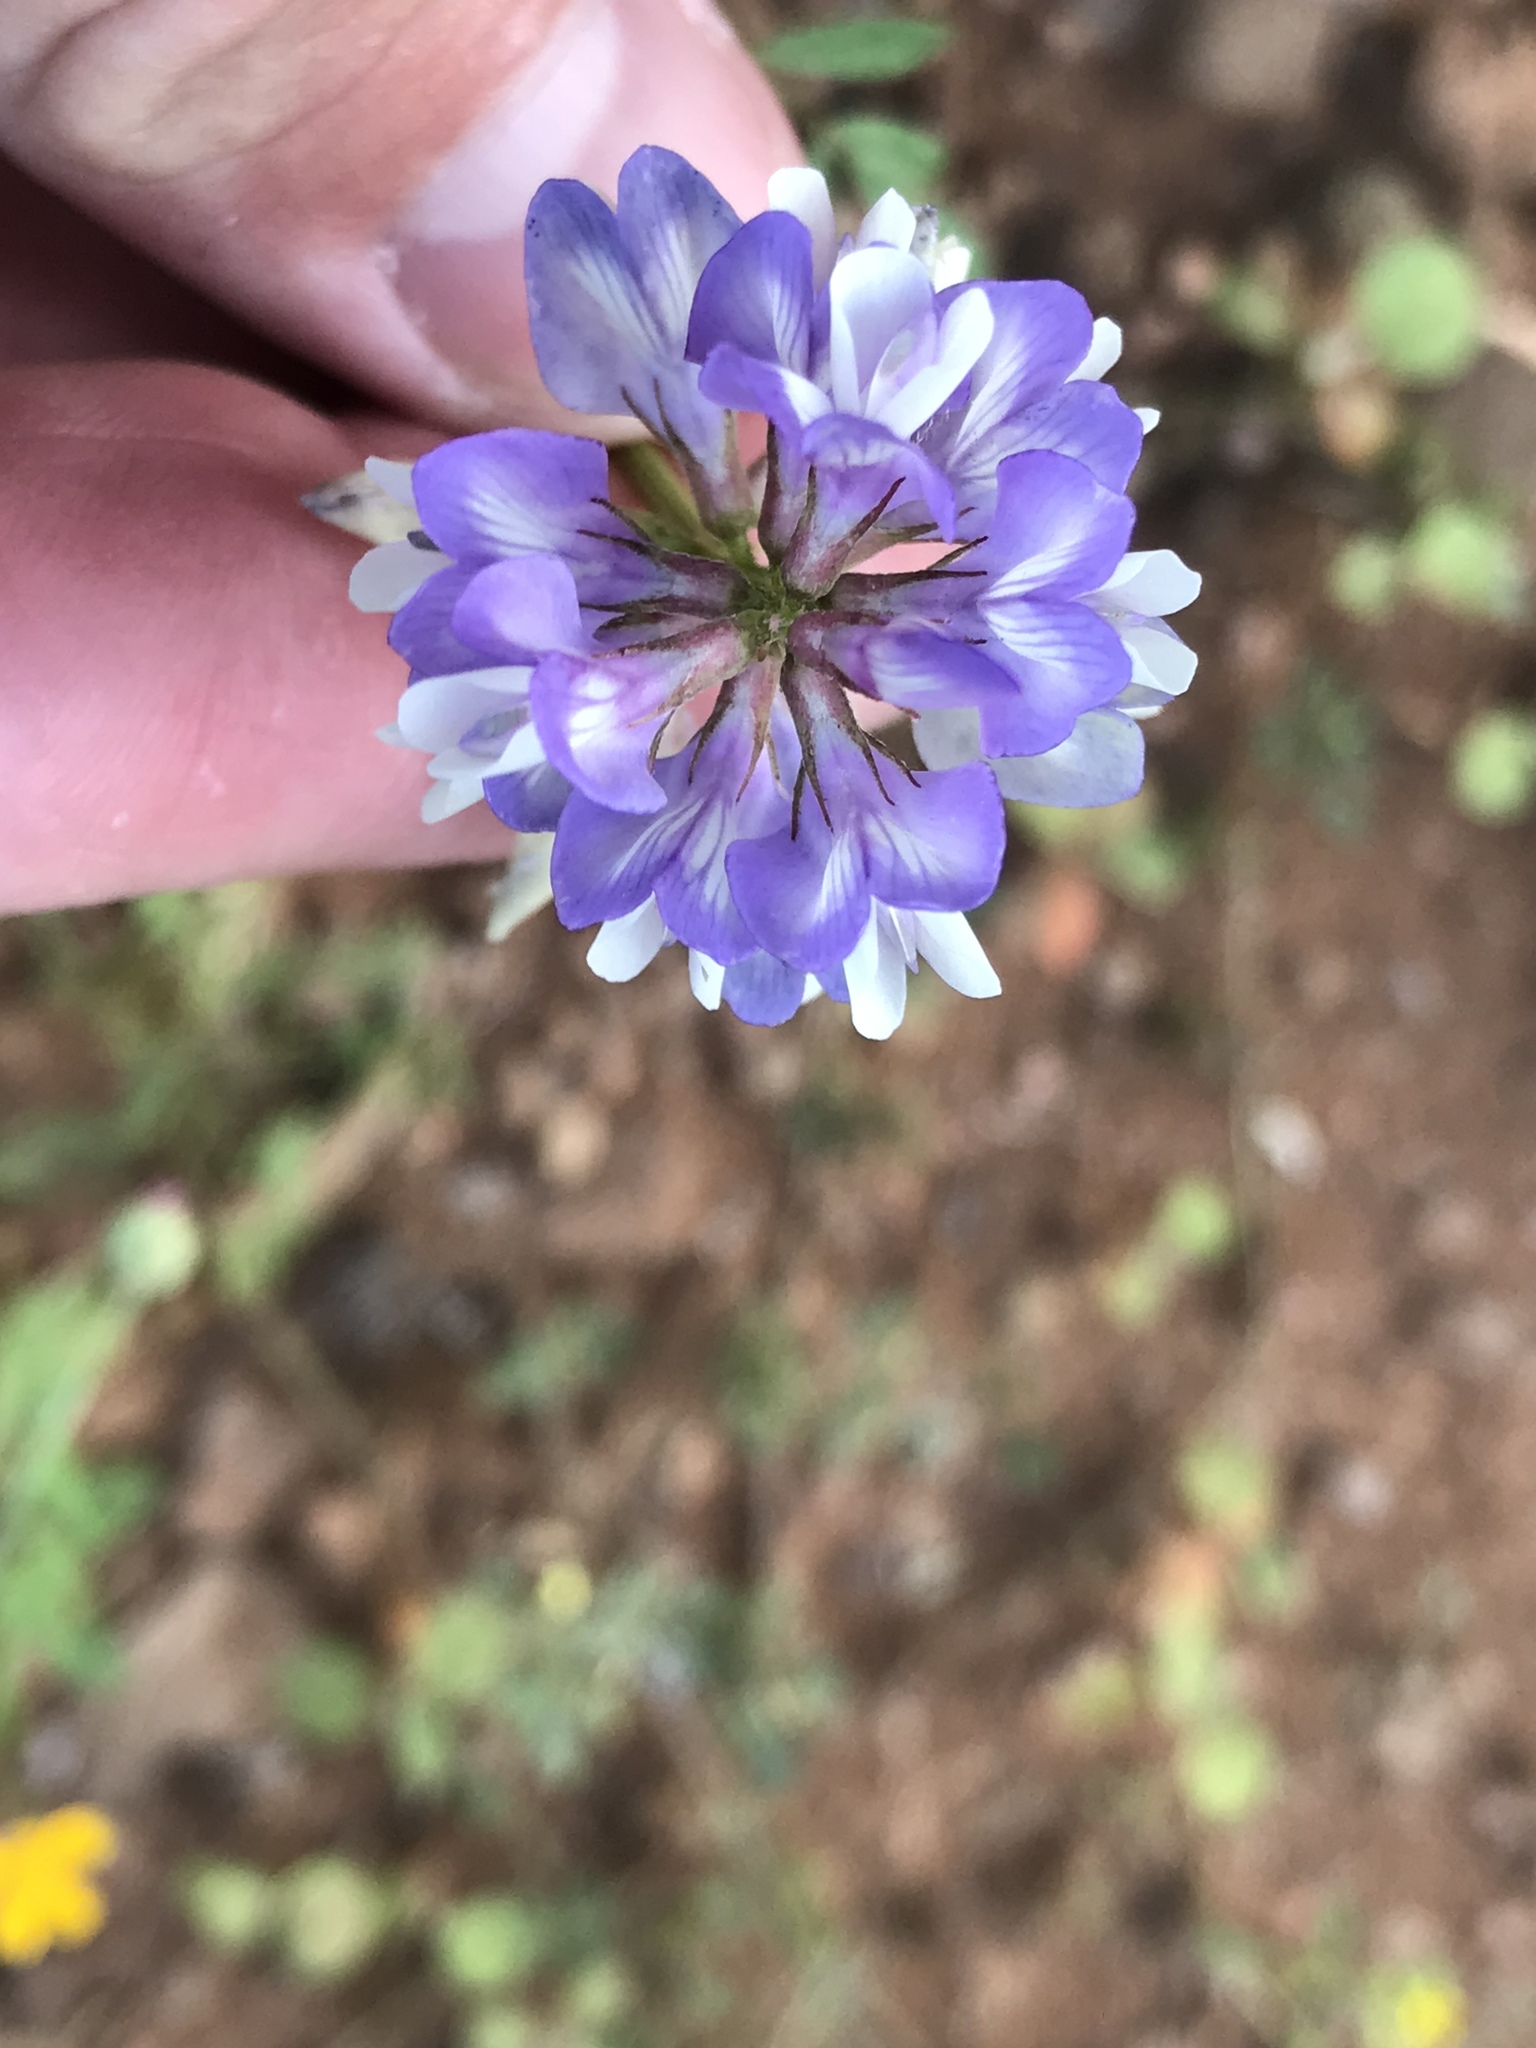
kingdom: Plantae
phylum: Tracheophyta
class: Magnoliopsida
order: Fabales
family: Fabaceae
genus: Astragalus
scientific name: Astragalus nuttallianus
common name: Smallflowered milkvetch
